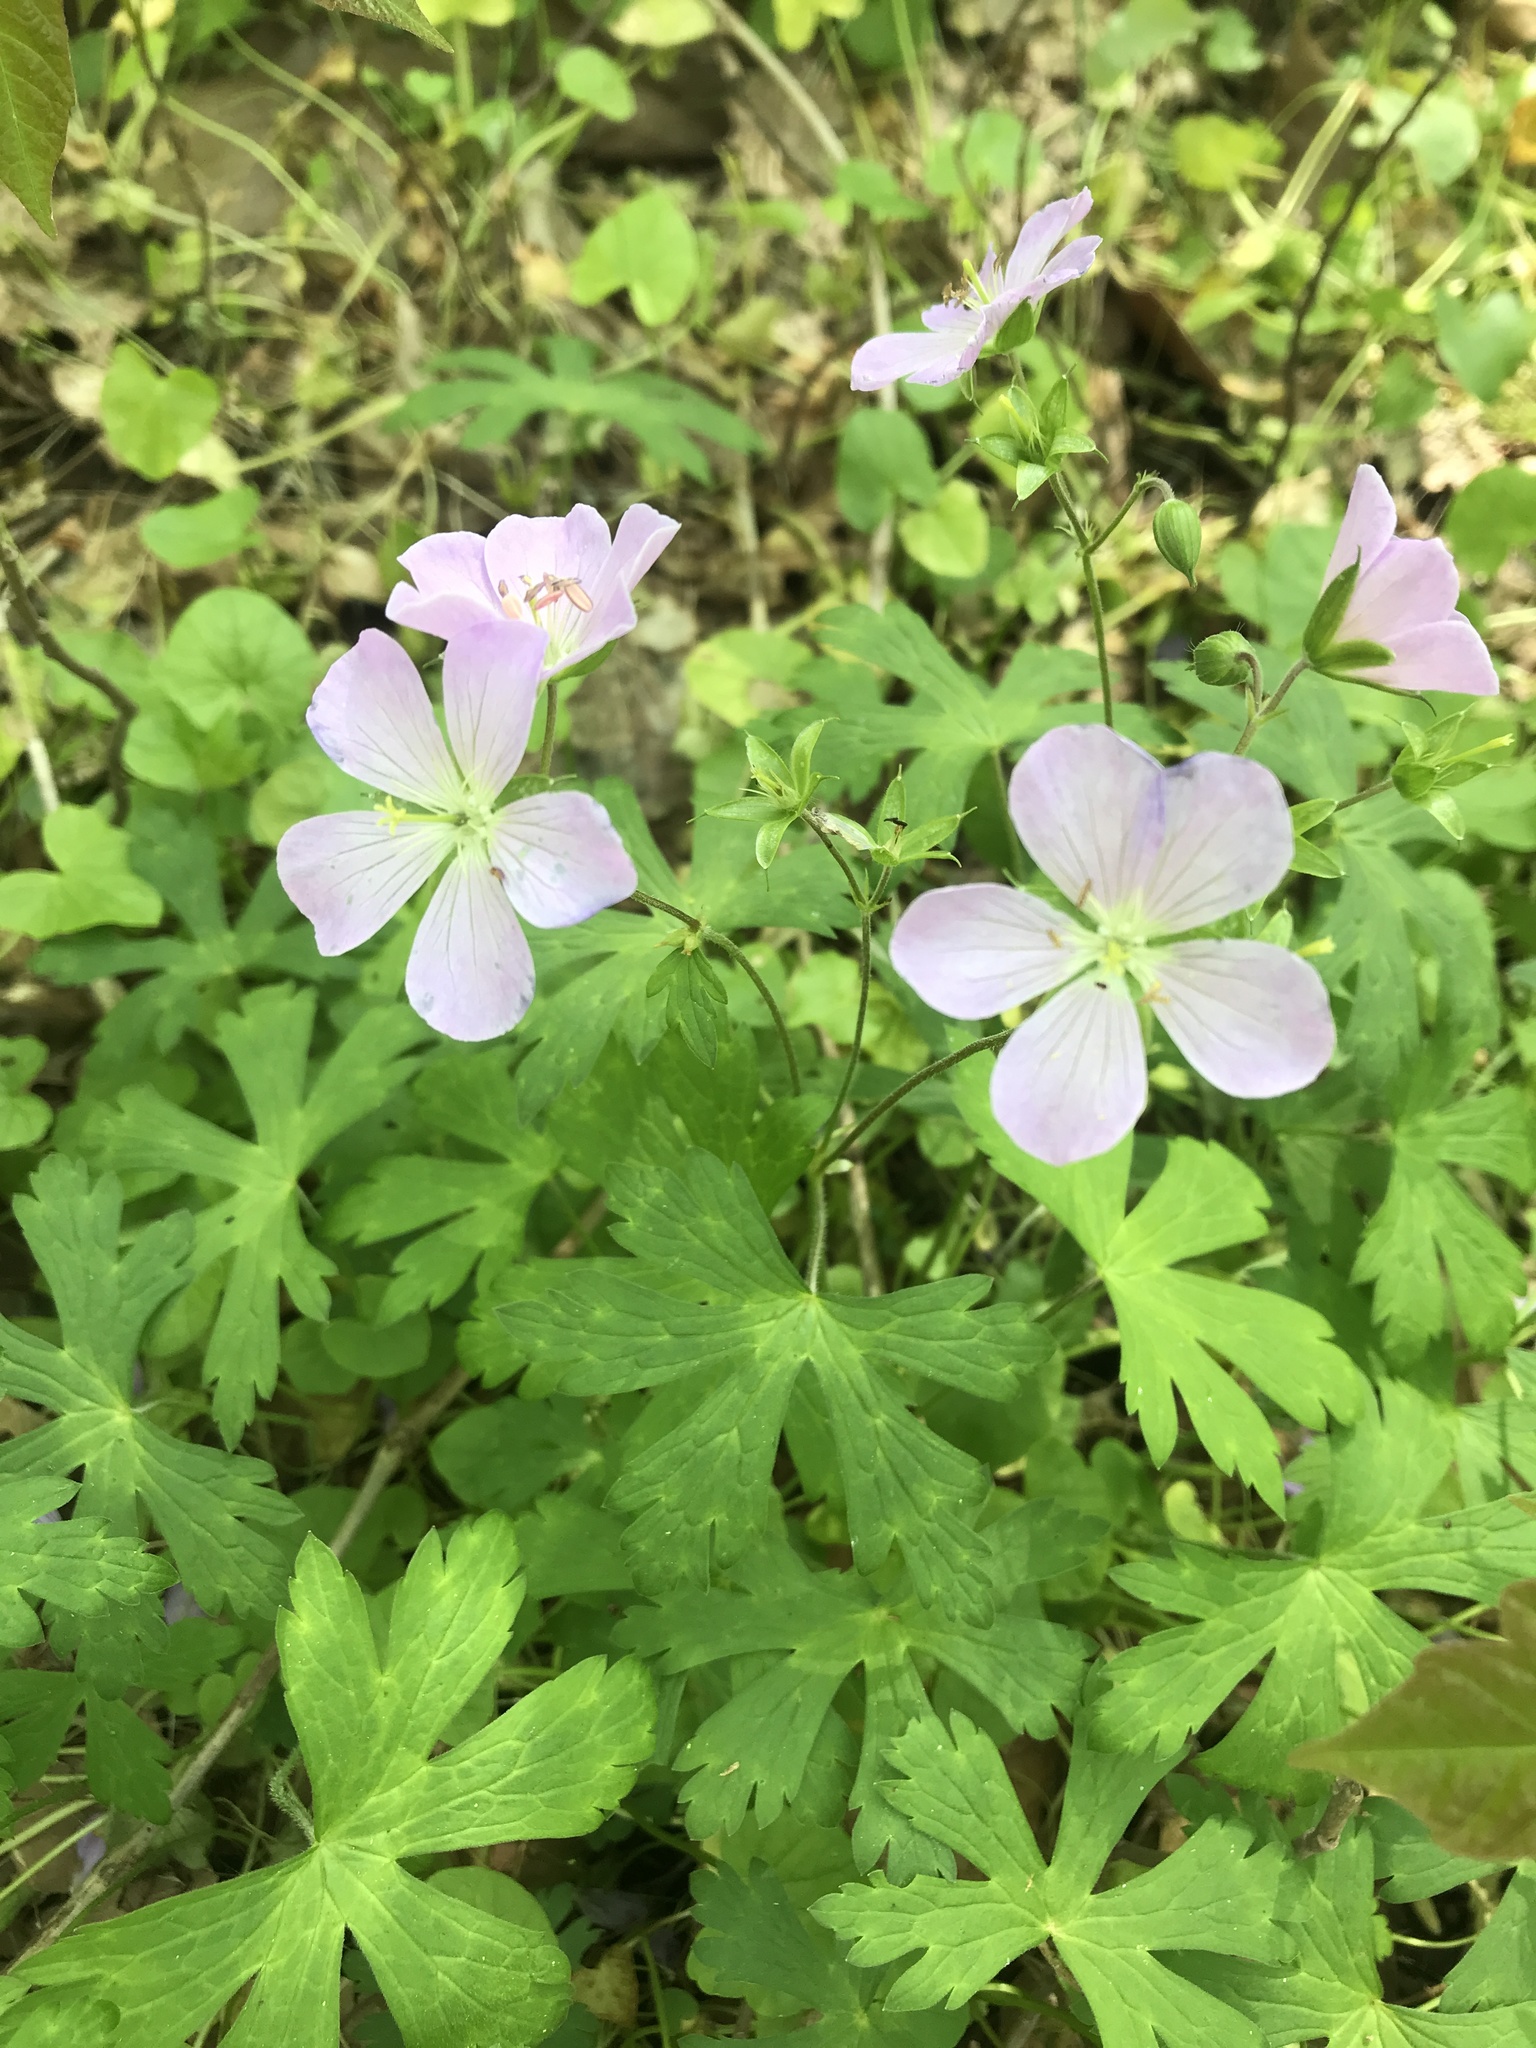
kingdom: Plantae
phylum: Tracheophyta
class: Magnoliopsida
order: Geraniales
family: Geraniaceae
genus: Geranium
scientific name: Geranium maculatum
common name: Spotted geranium
